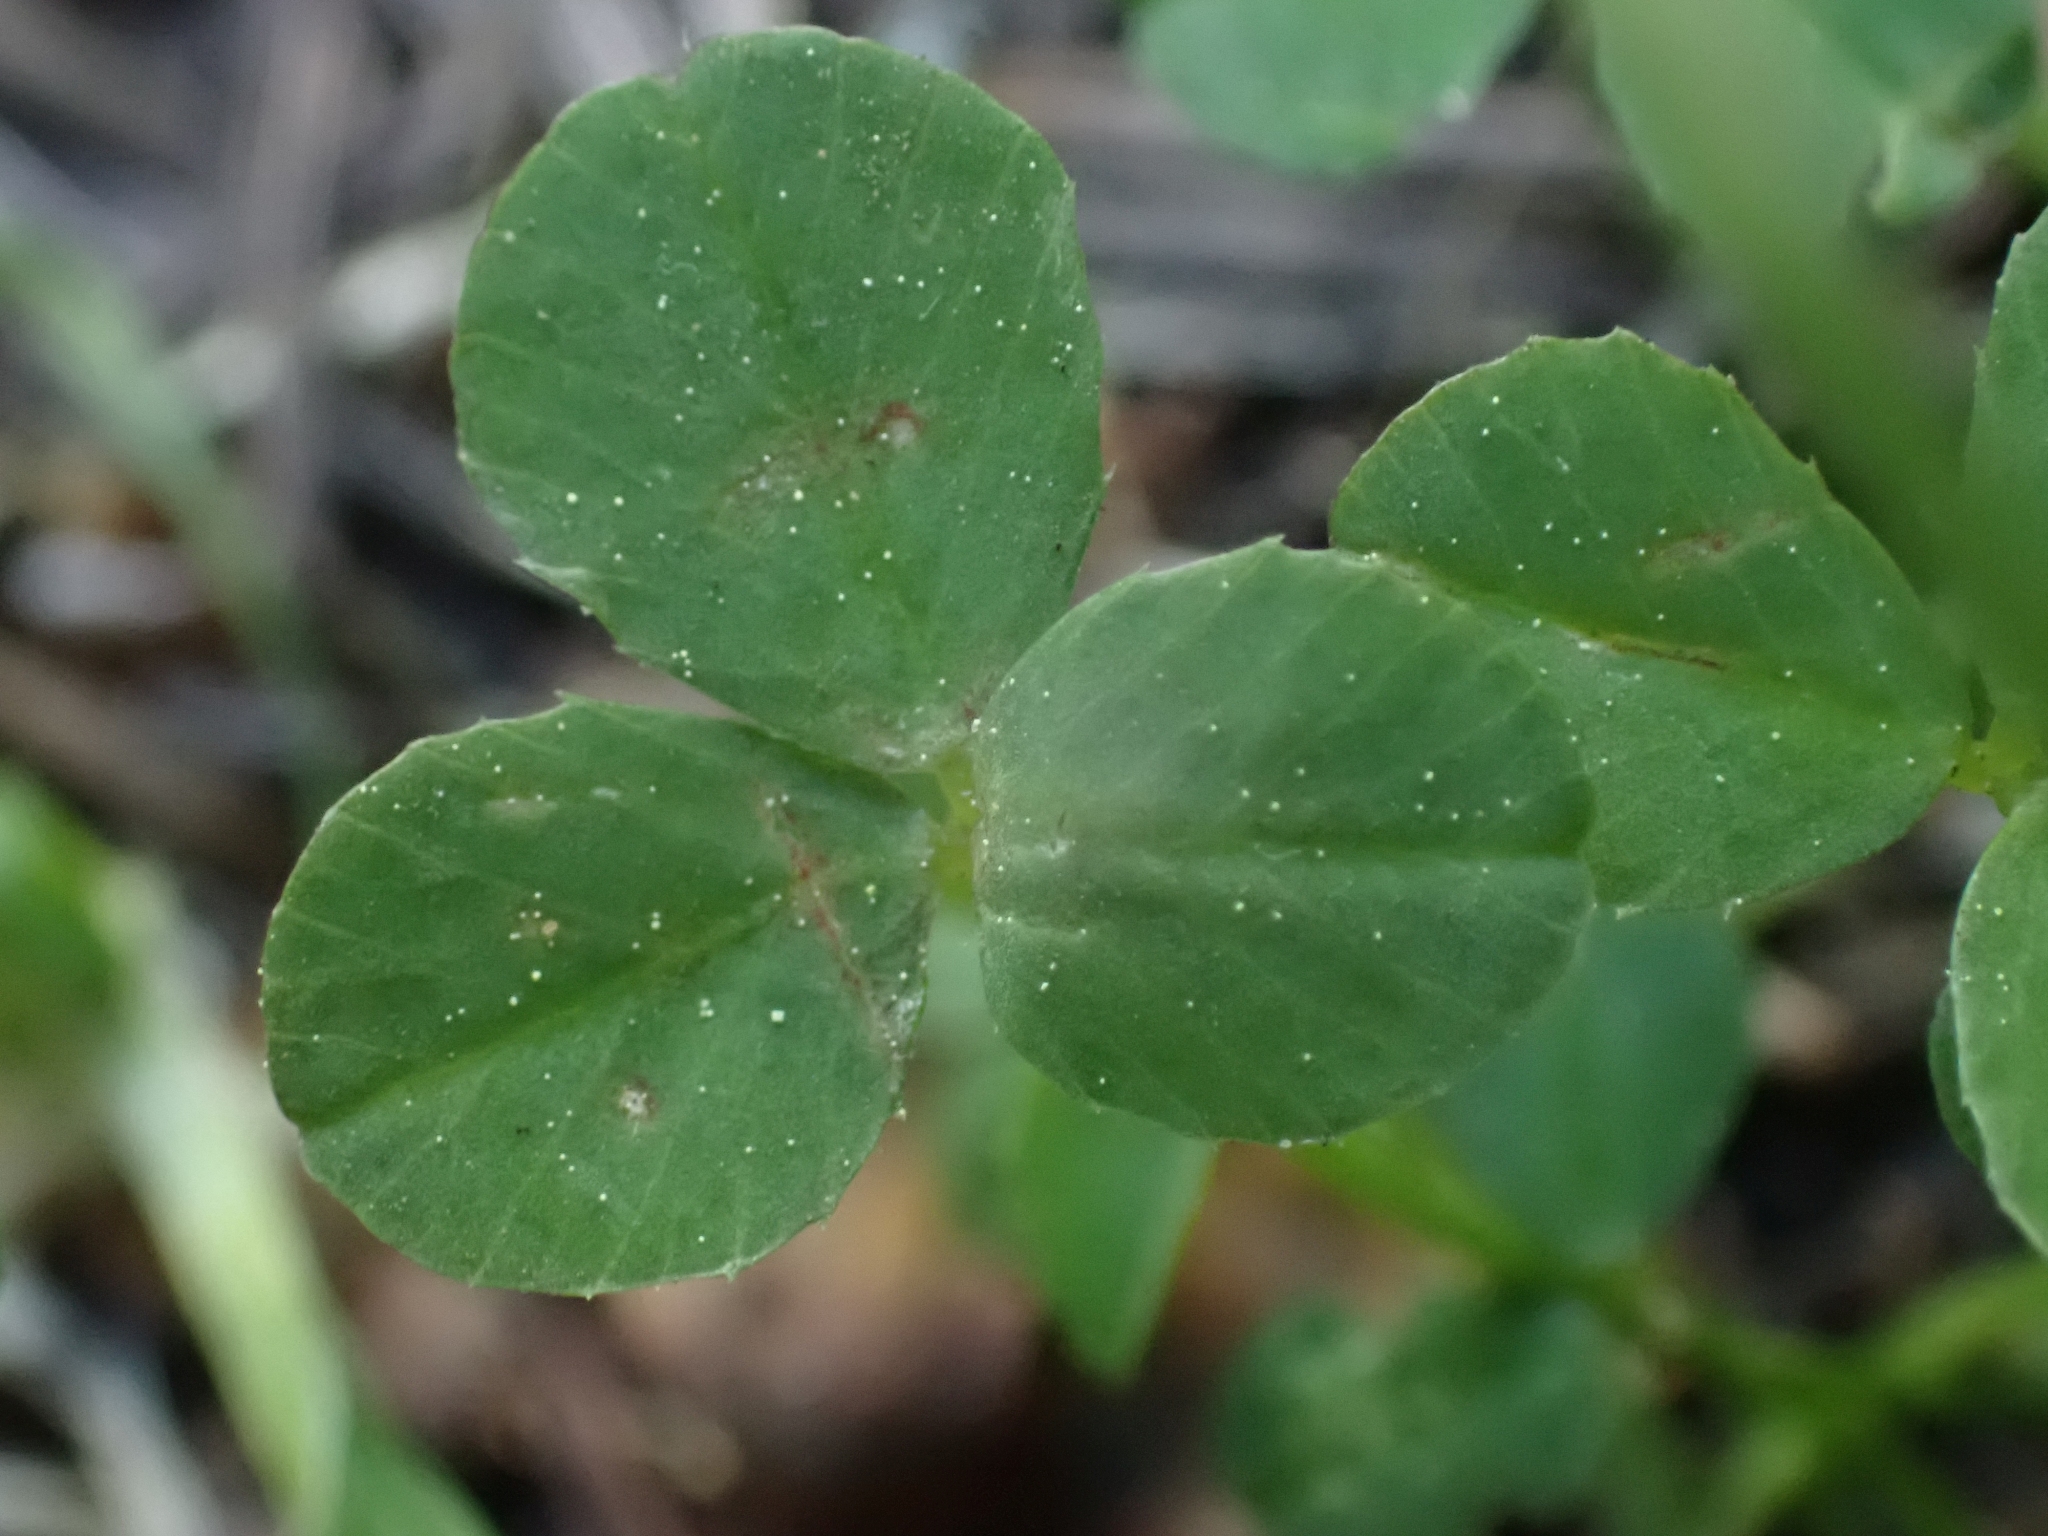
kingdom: Plantae
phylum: Tracheophyta
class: Magnoliopsida
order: Fabales
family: Fabaceae
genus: Trifolium
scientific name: Trifolium repens
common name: White clover
